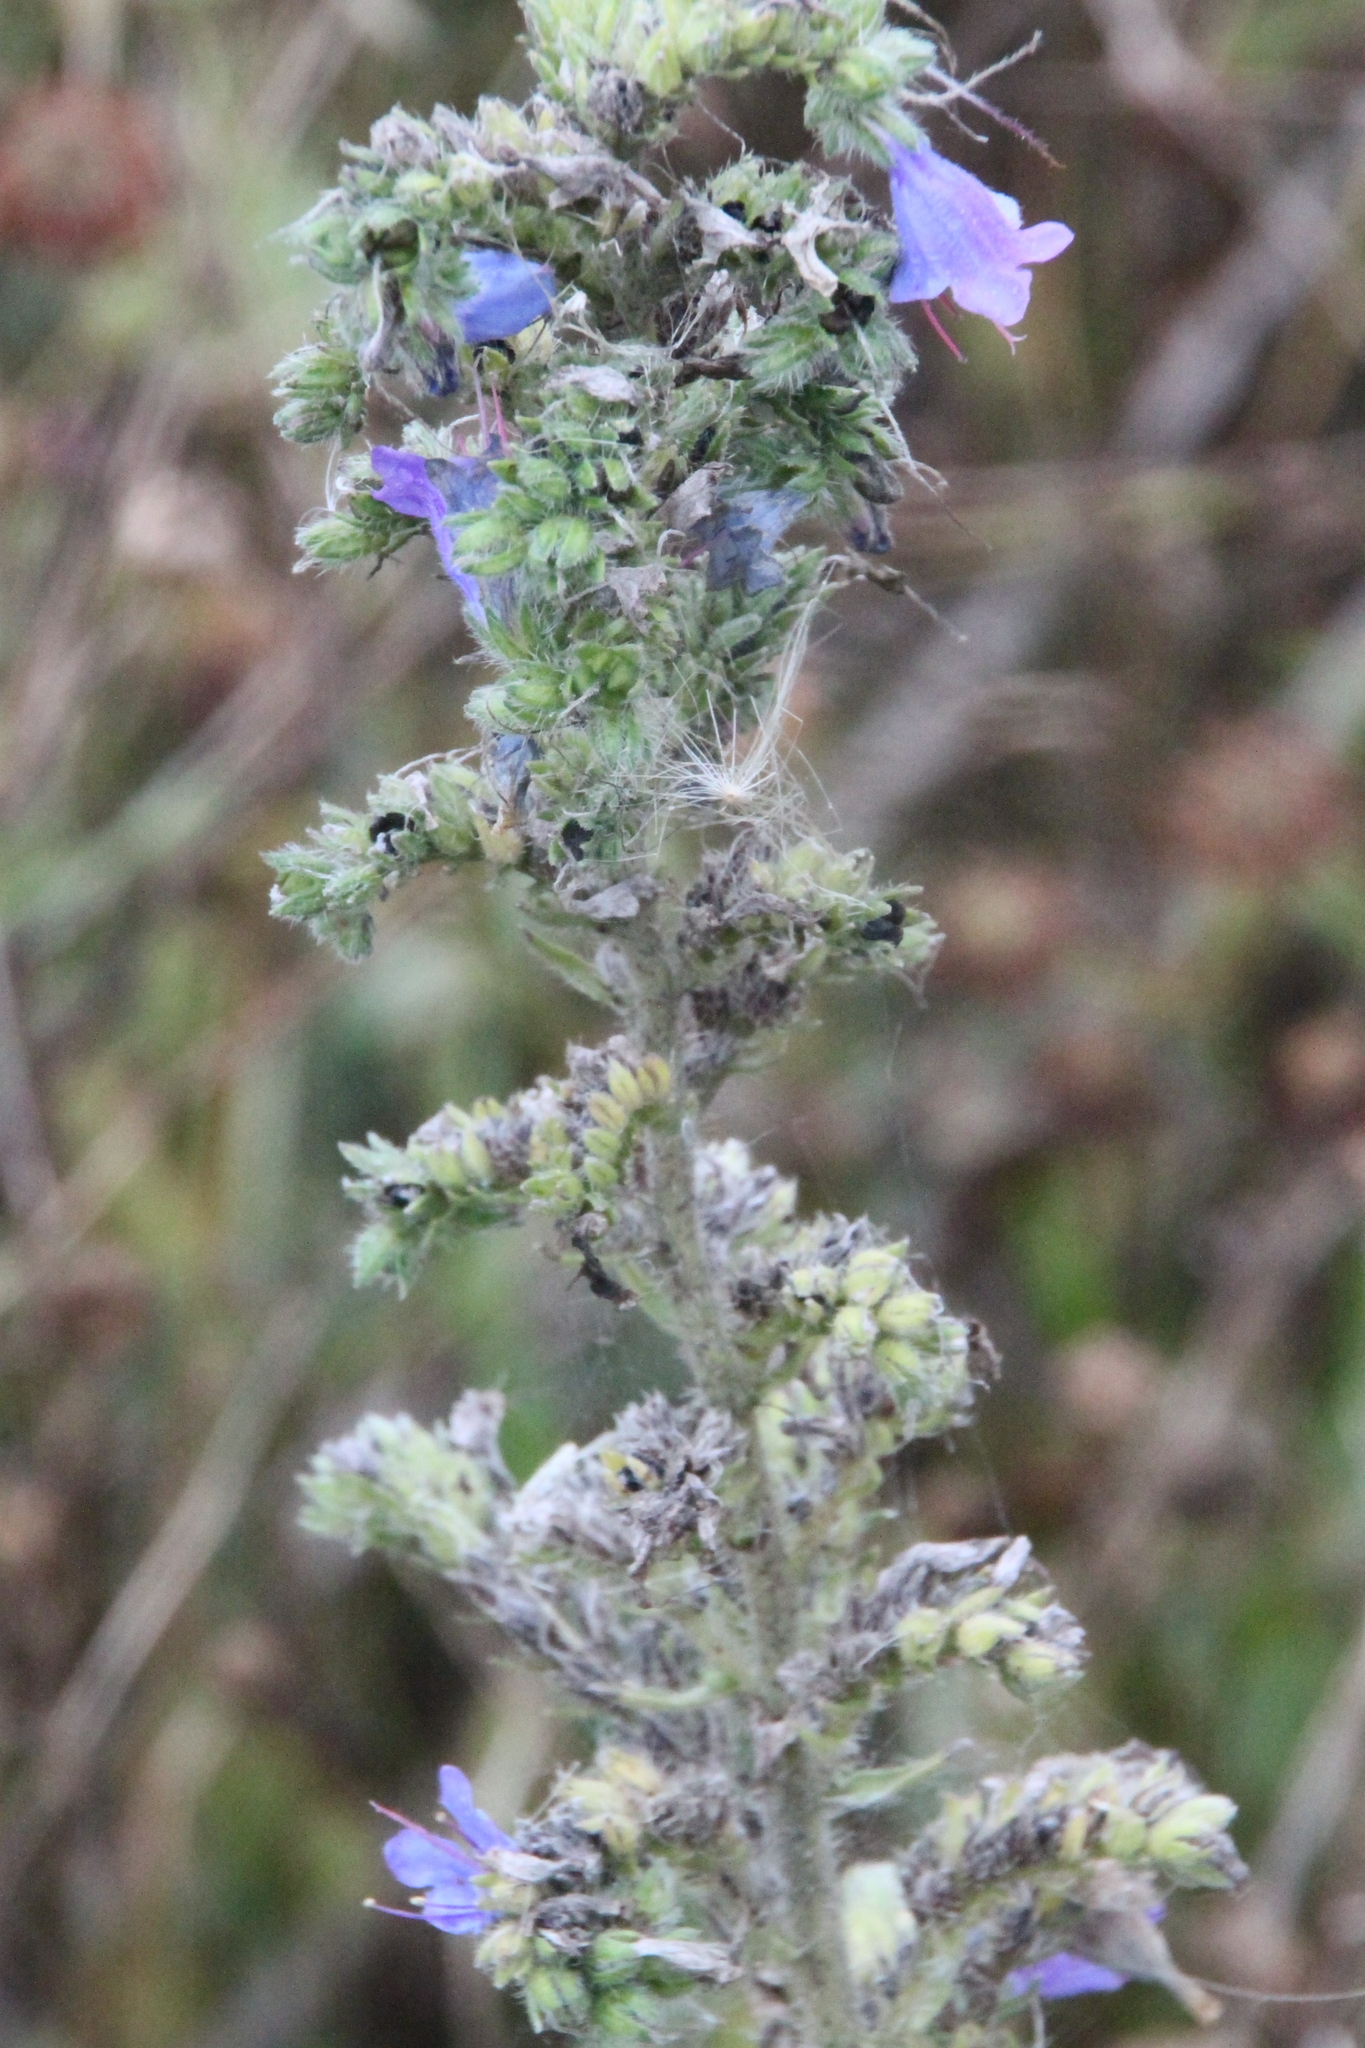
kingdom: Plantae
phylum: Tracheophyta
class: Magnoliopsida
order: Boraginales
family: Boraginaceae
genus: Echium
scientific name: Echium vulgare
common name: Common viper's bugloss
